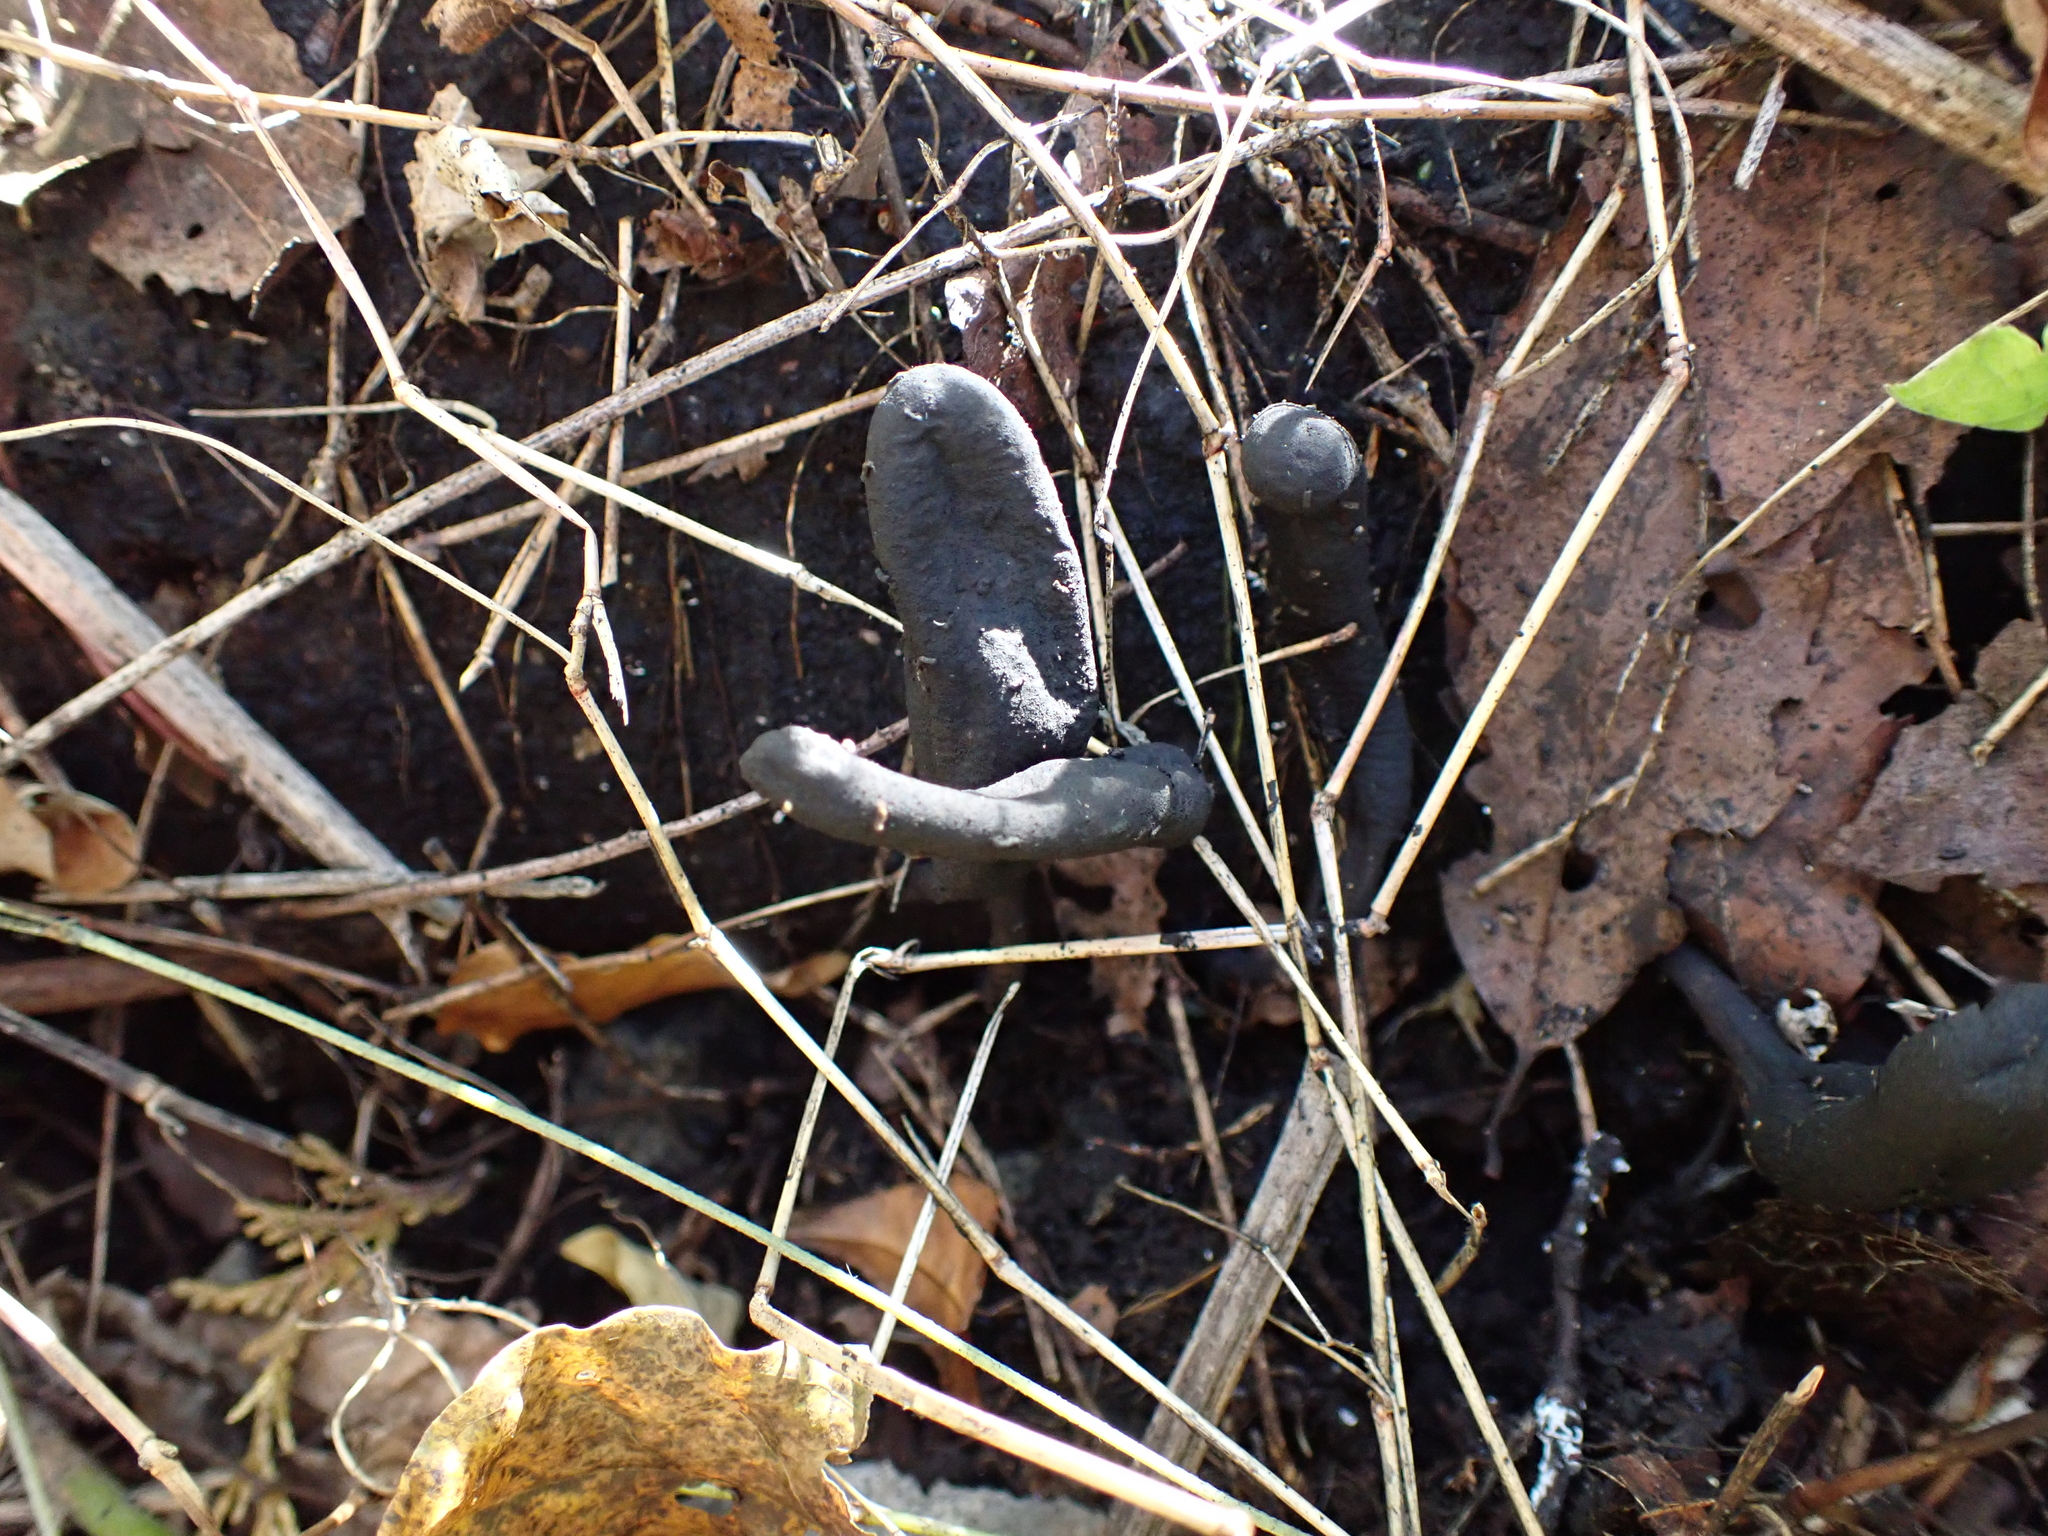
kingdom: Fungi
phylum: Ascomycota
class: Sordariomycetes
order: Xylariales
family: Xylariaceae
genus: Xylaria
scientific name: Xylaria polymorpha
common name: Dead man's fingers
